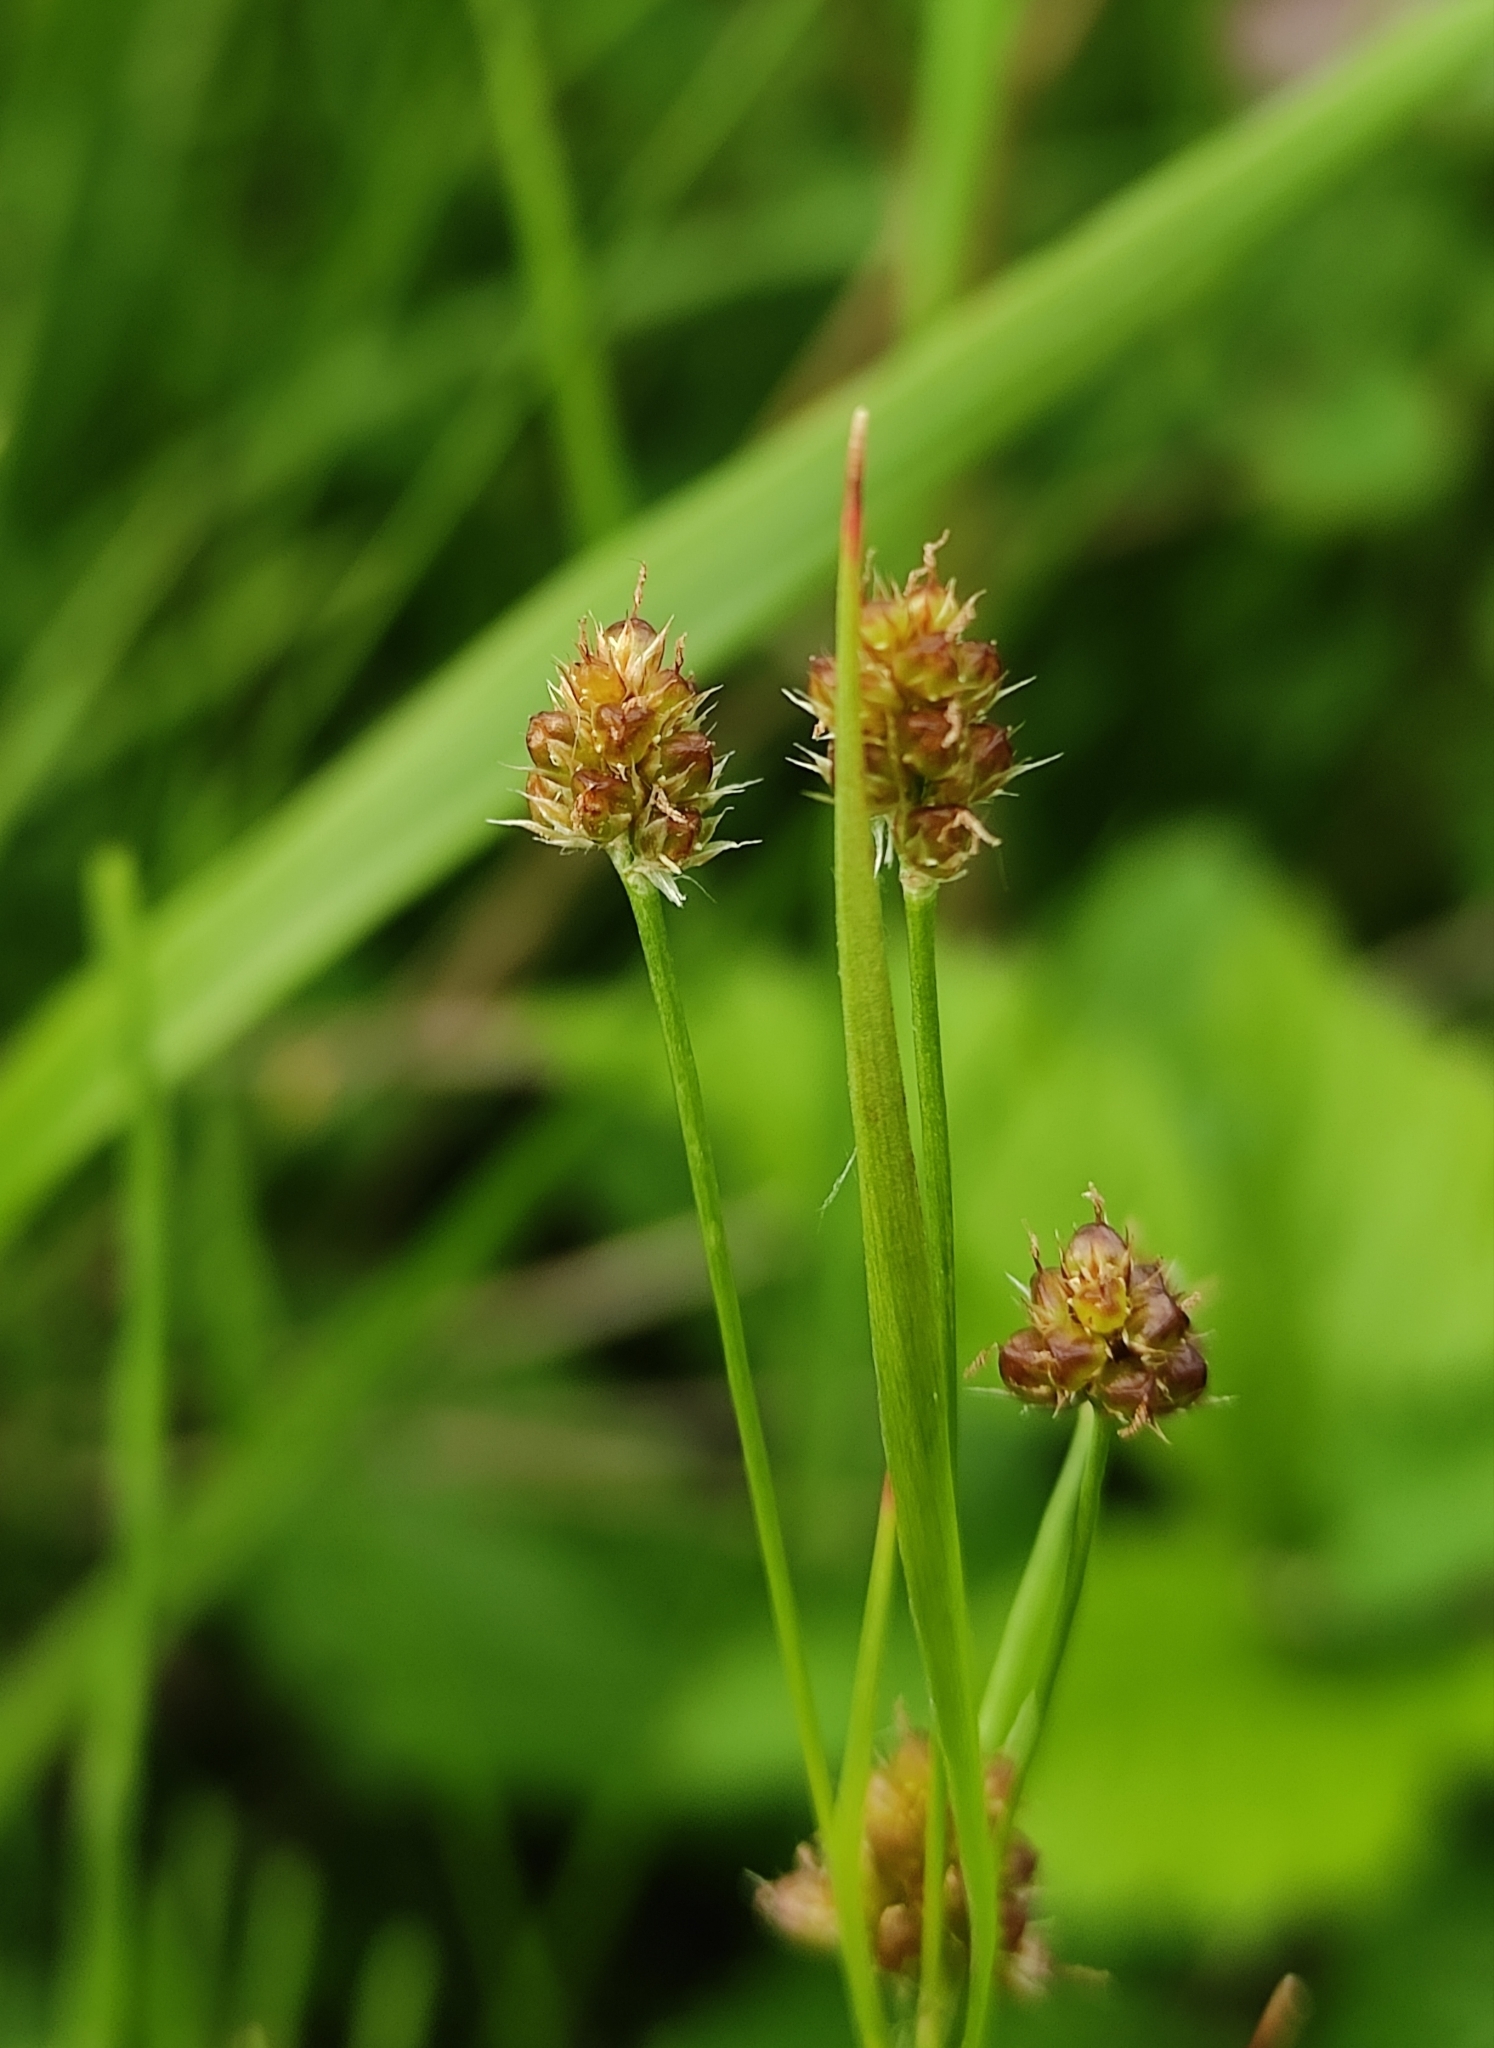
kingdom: Plantae
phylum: Tracheophyta
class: Liliopsida
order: Poales
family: Juncaceae
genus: Luzula
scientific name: Luzula pallescens
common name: Fen wood-rush
